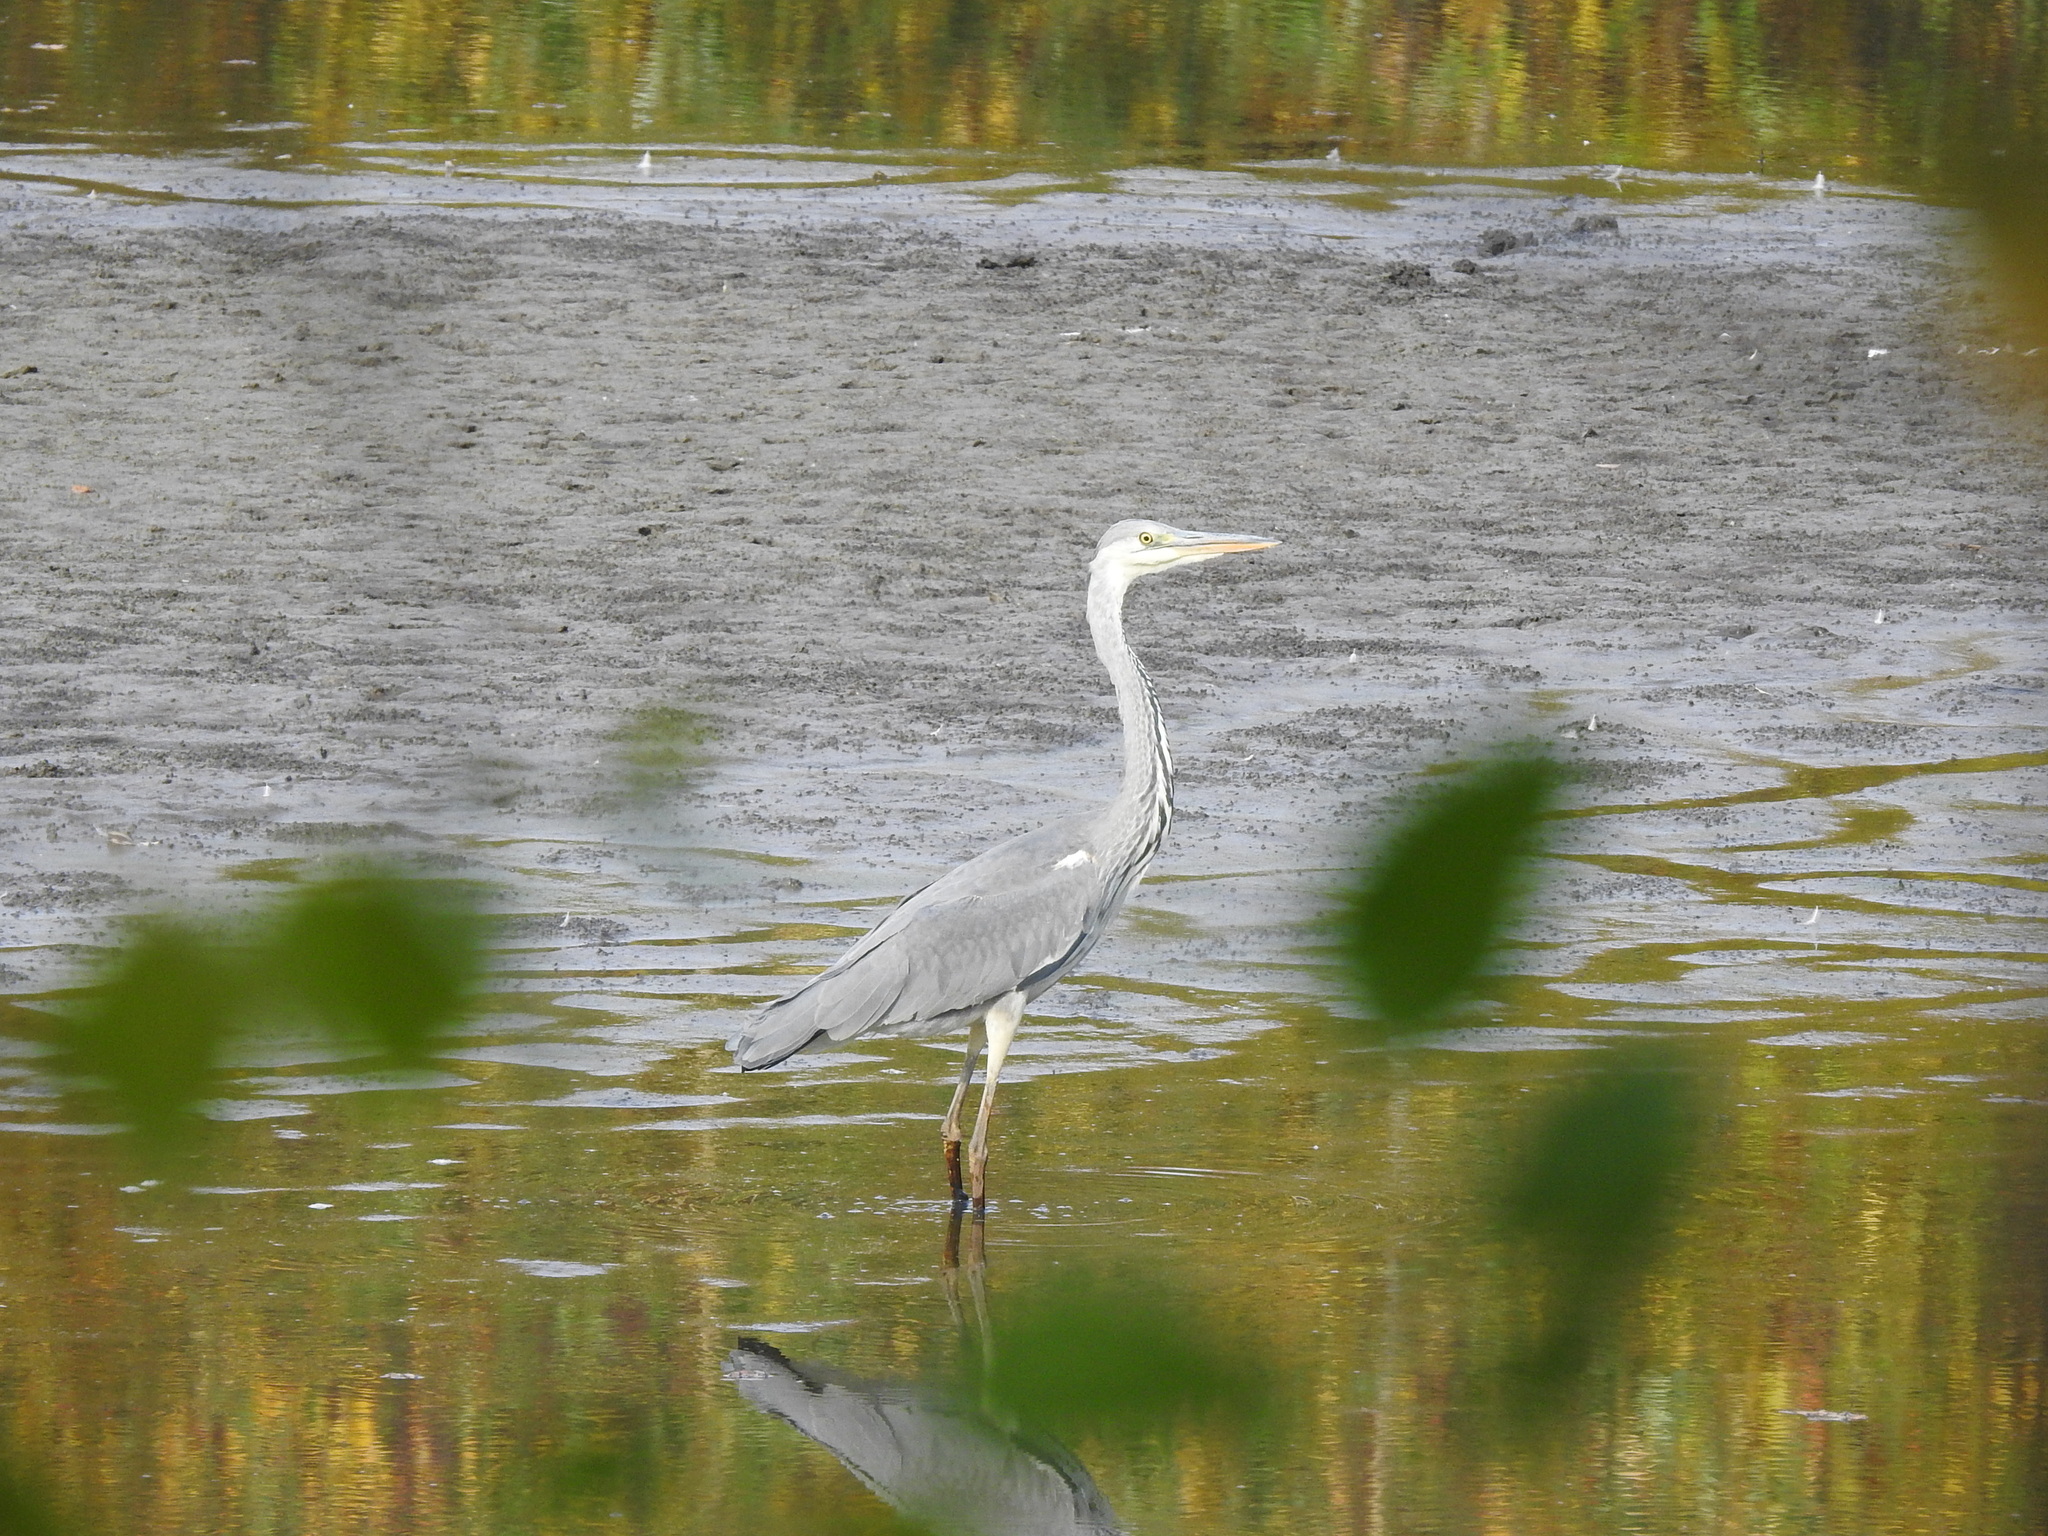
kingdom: Animalia
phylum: Chordata
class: Aves
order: Pelecaniformes
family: Ardeidae
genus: Ardea
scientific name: Ardea cinerea
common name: Grey heron
